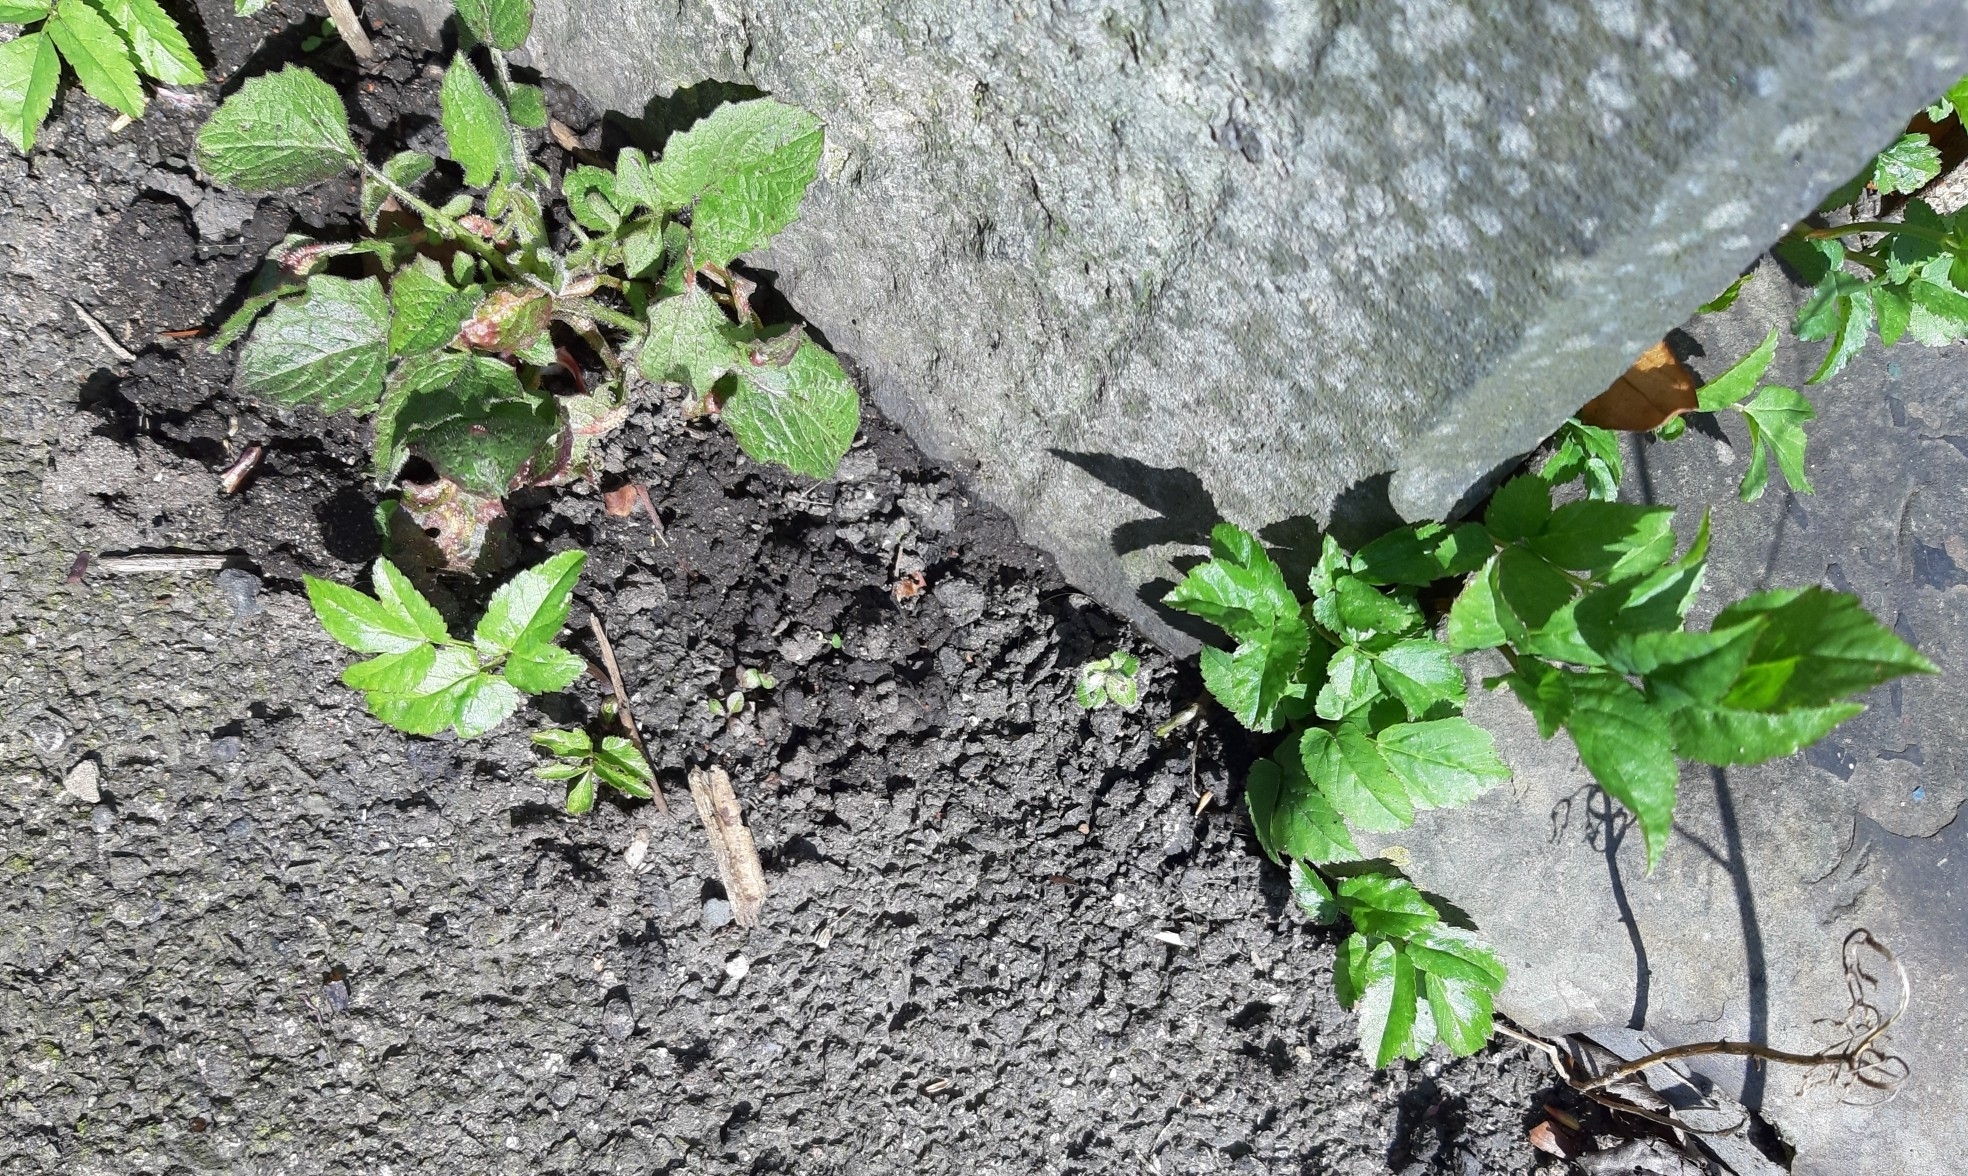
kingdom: Plantae
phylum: Tracheophyta
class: Magnoliopsida
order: Apiales
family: Apiaceae
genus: Aegopodium
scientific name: Aegopodium podagraria
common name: Ground-elder
